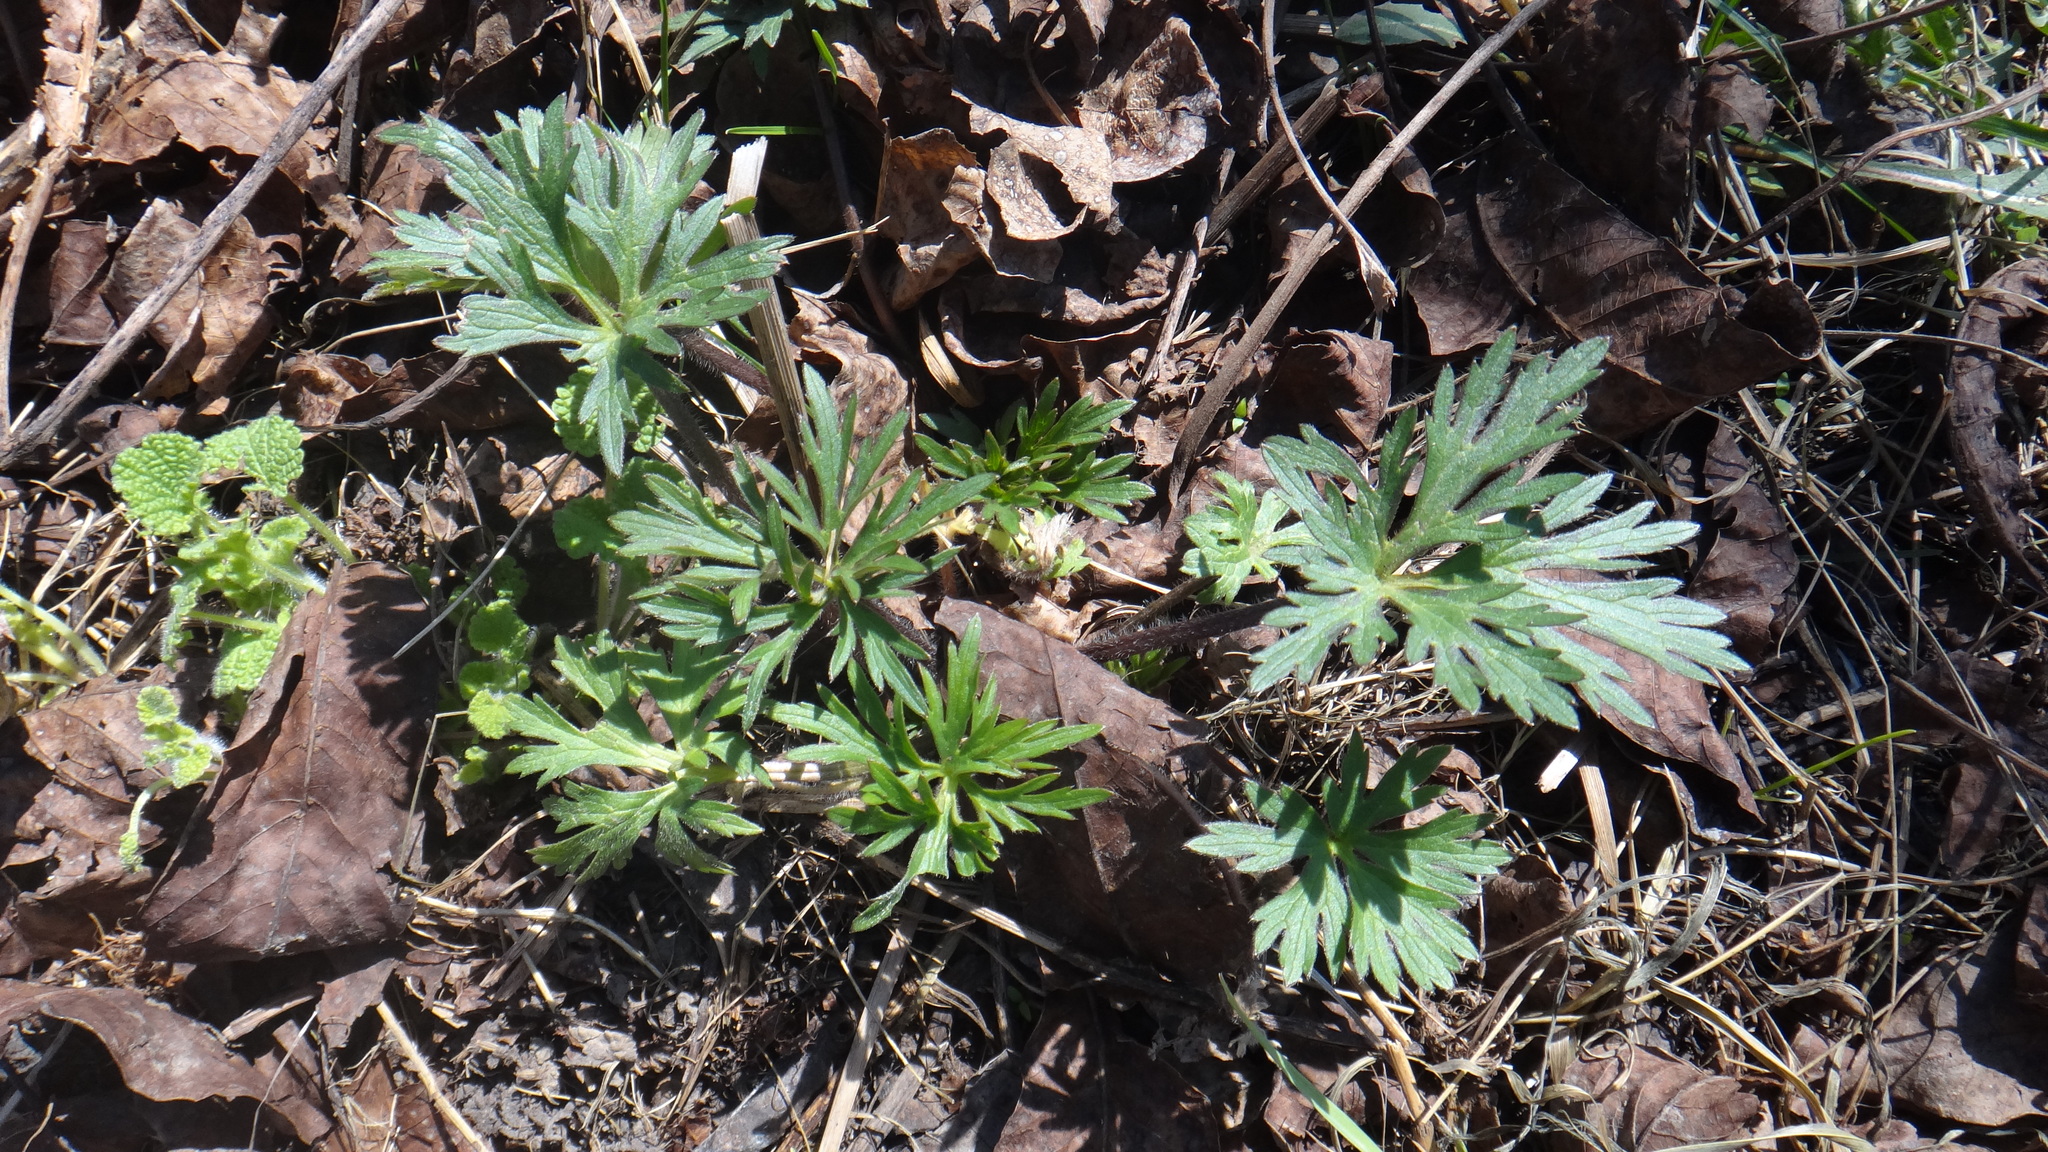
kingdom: Plantae
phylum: Tracheophyta
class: Magnoliopsida
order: Ranunculales
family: Ranunculaceae
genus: Ranunculus
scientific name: Ranunculus polyanthemos
